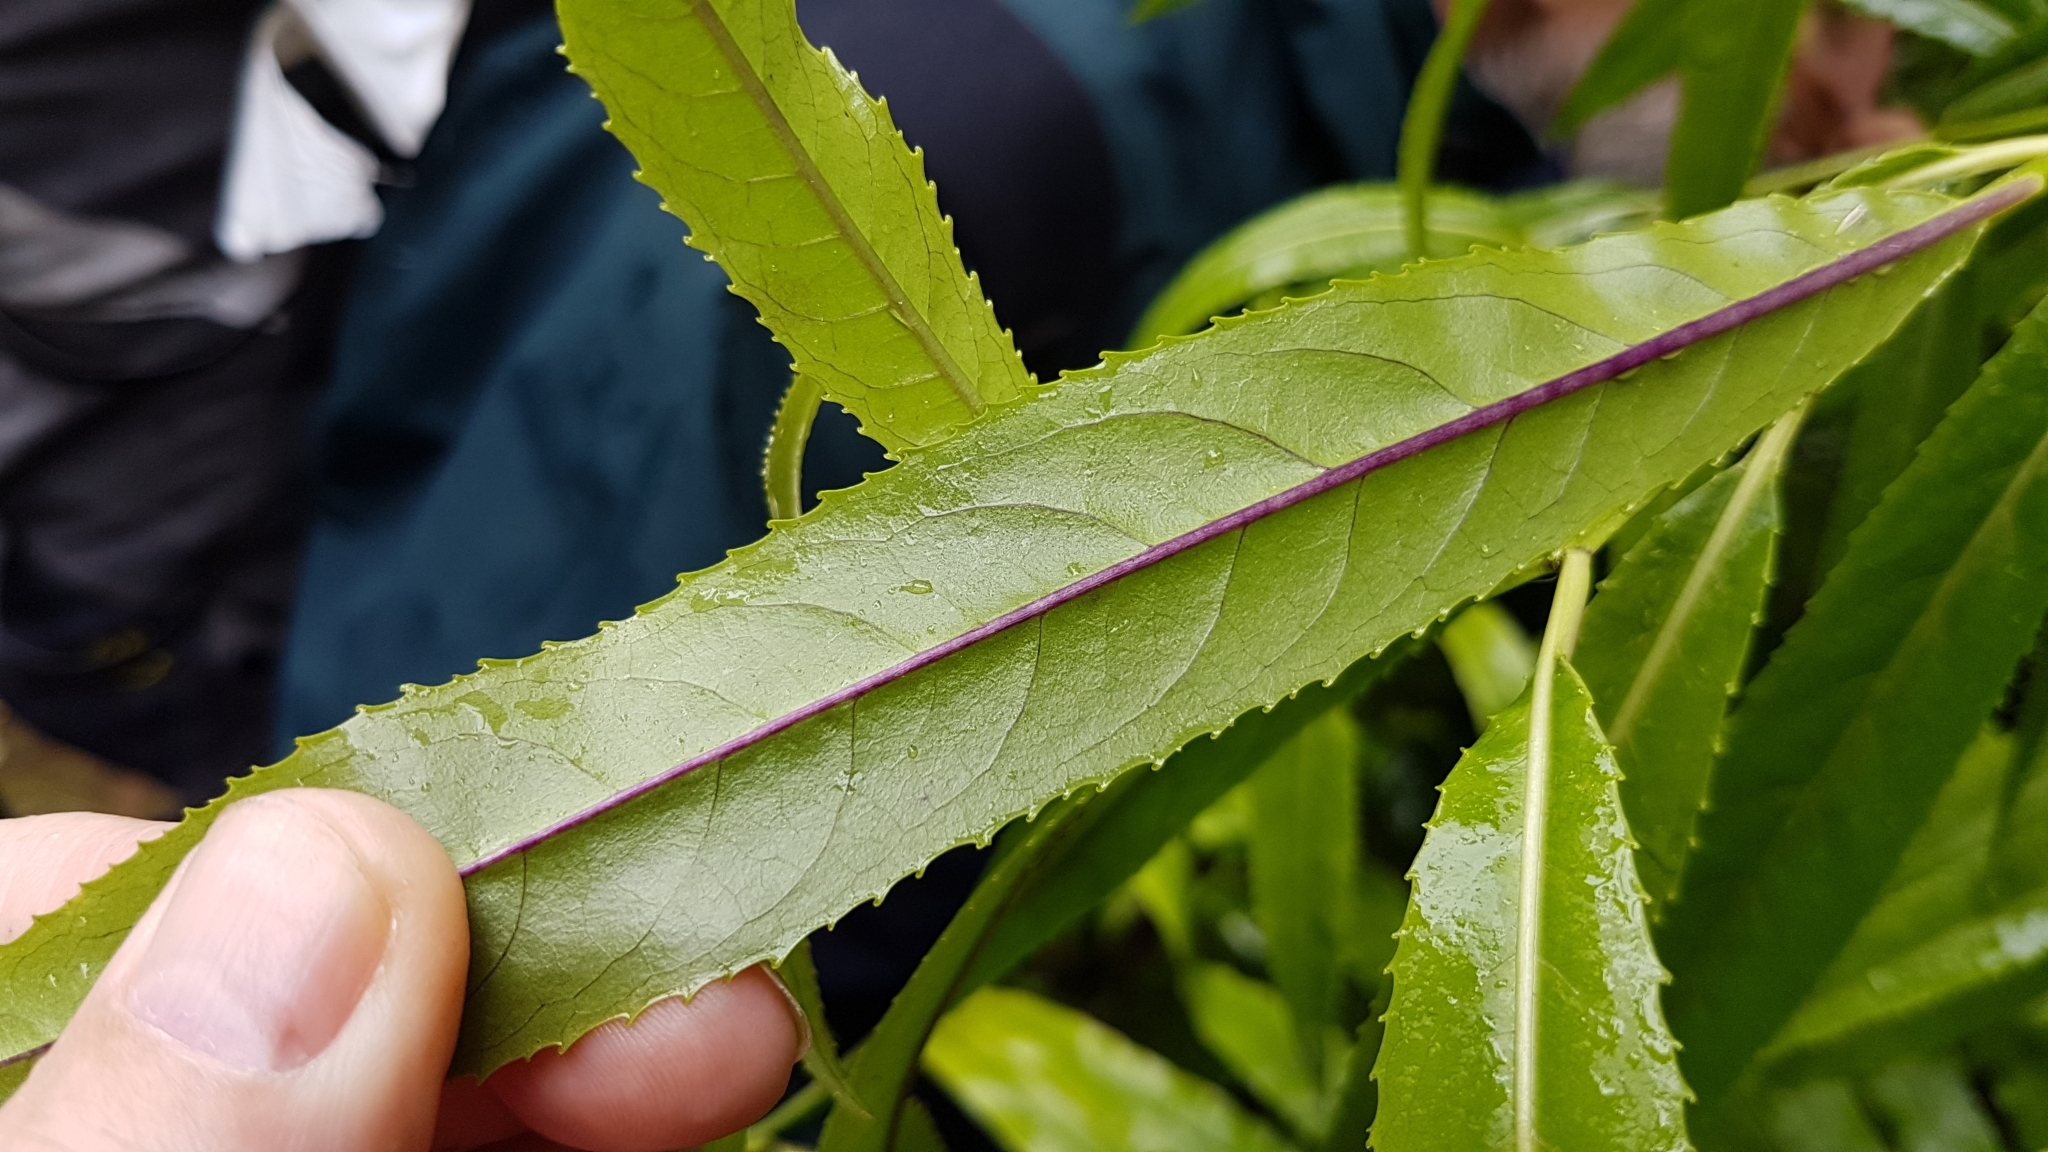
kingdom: Plantae
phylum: Tracheophyta
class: Magnoliopsida
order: Malpighiales
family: Violaceae
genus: Melicytus
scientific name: Melicytus lanceolatus
